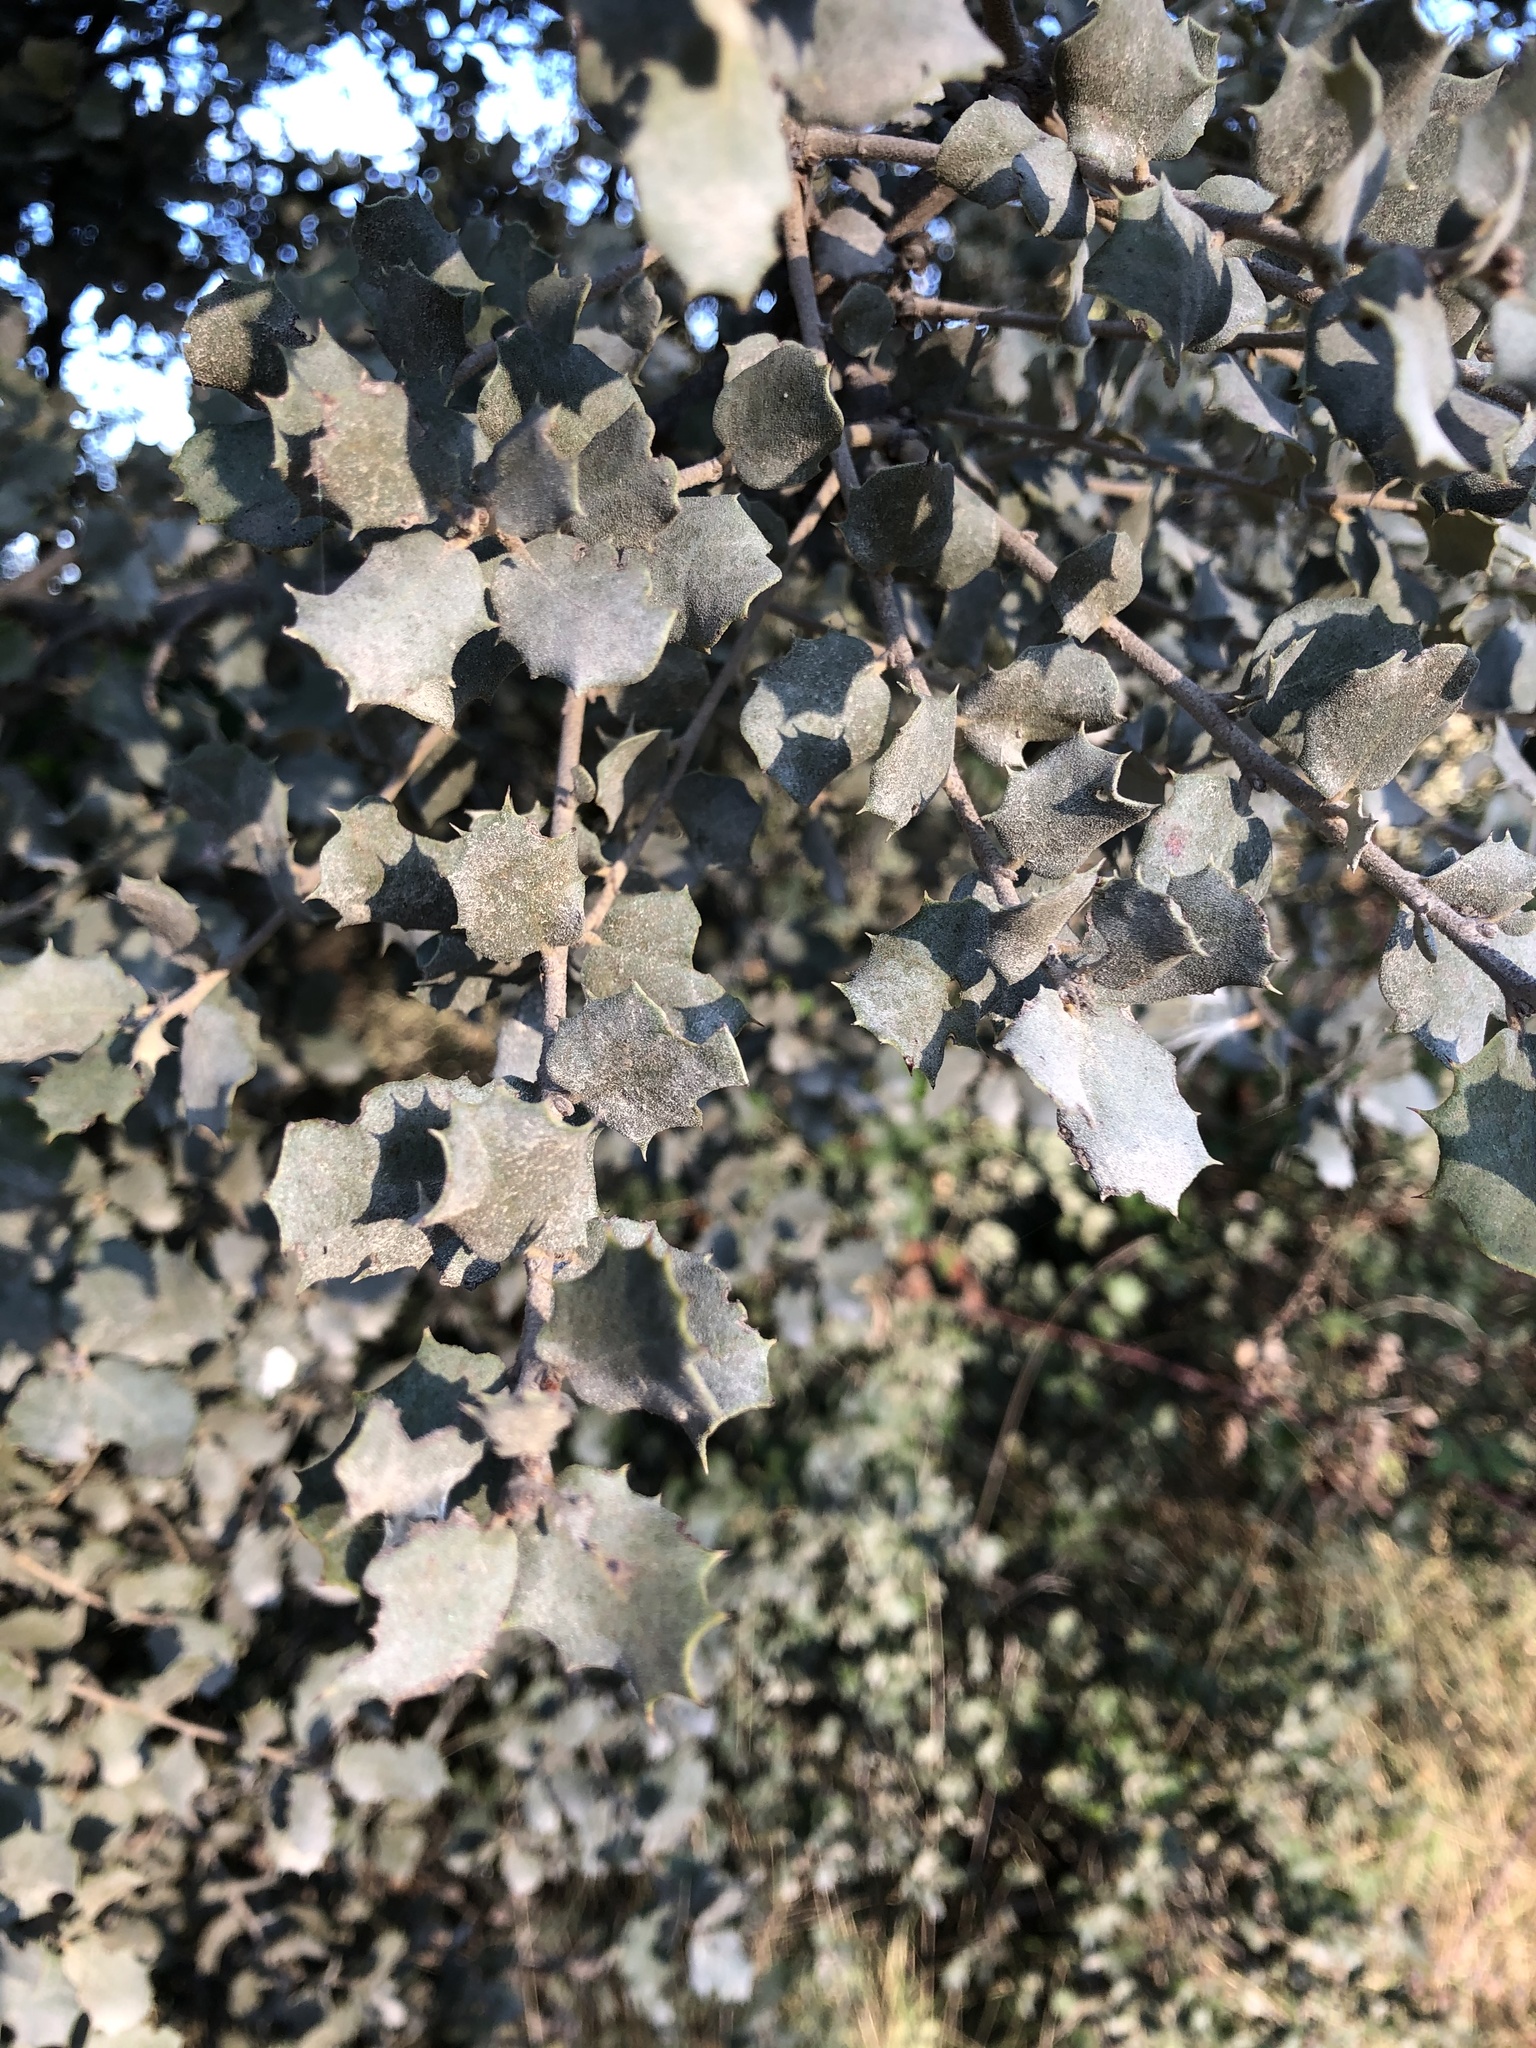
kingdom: Plantae
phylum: Tracheophyta
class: Magnoliopsida
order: Fagales
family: Fagaceae
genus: Quercus
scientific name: Quercus rotundifolia
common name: Holm oak
